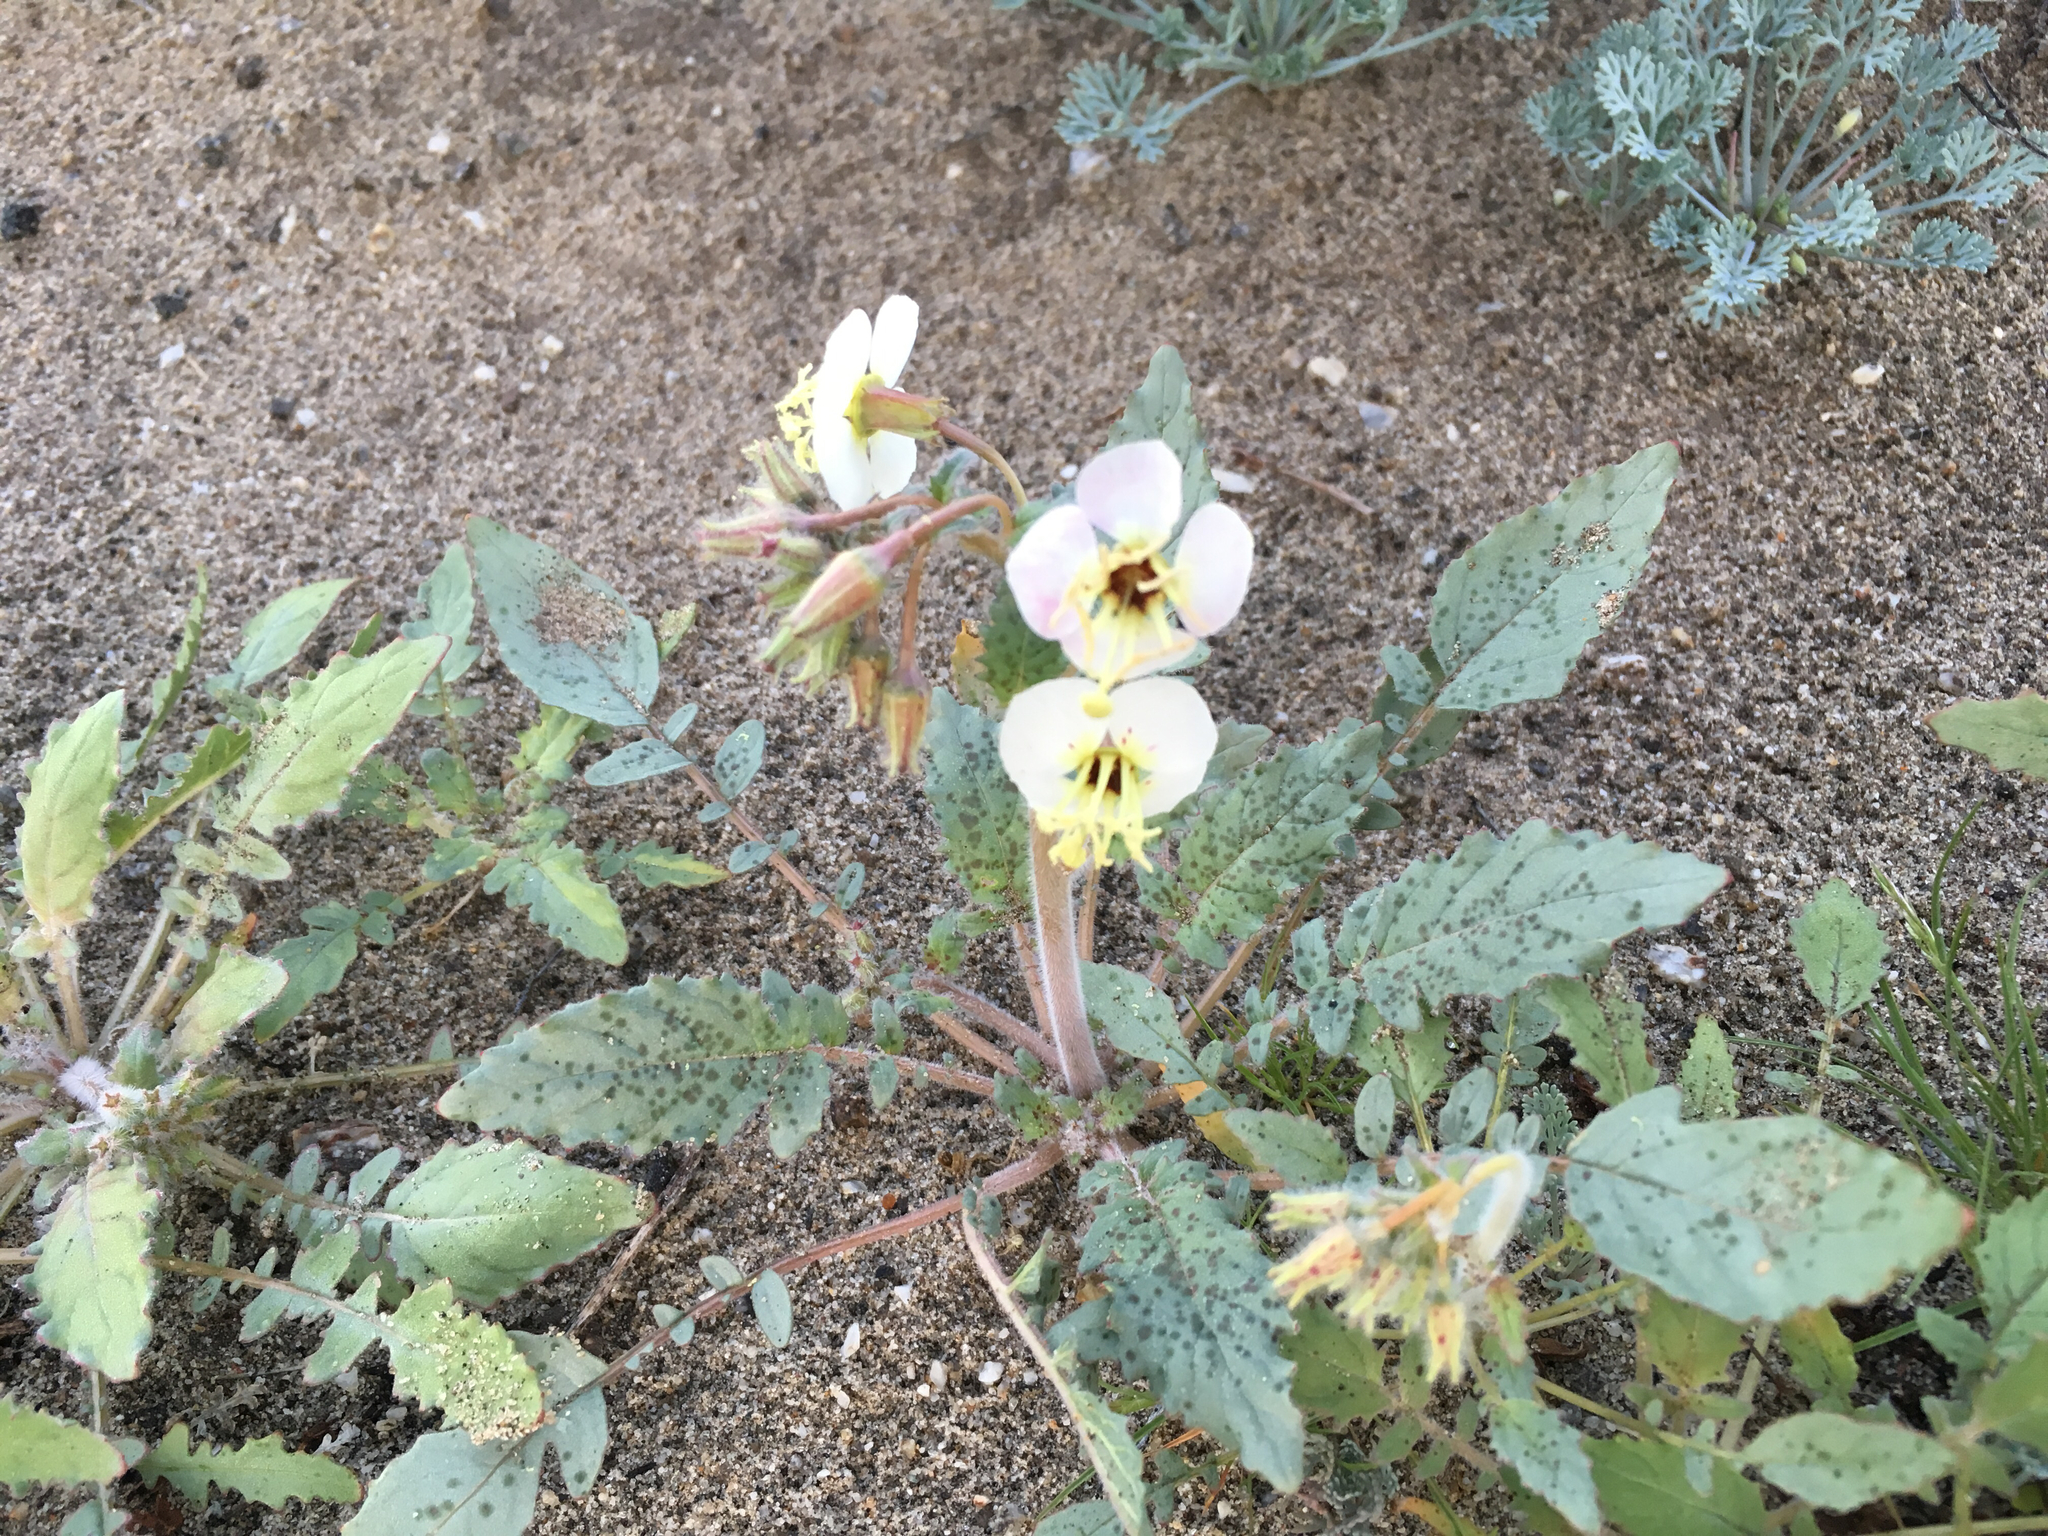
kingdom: Plantae
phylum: Tracheophyta
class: Magnoliopsida
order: Myrtales
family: Onagraceae
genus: Chylismia
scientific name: Chylismia claviformis
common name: Browneyes
